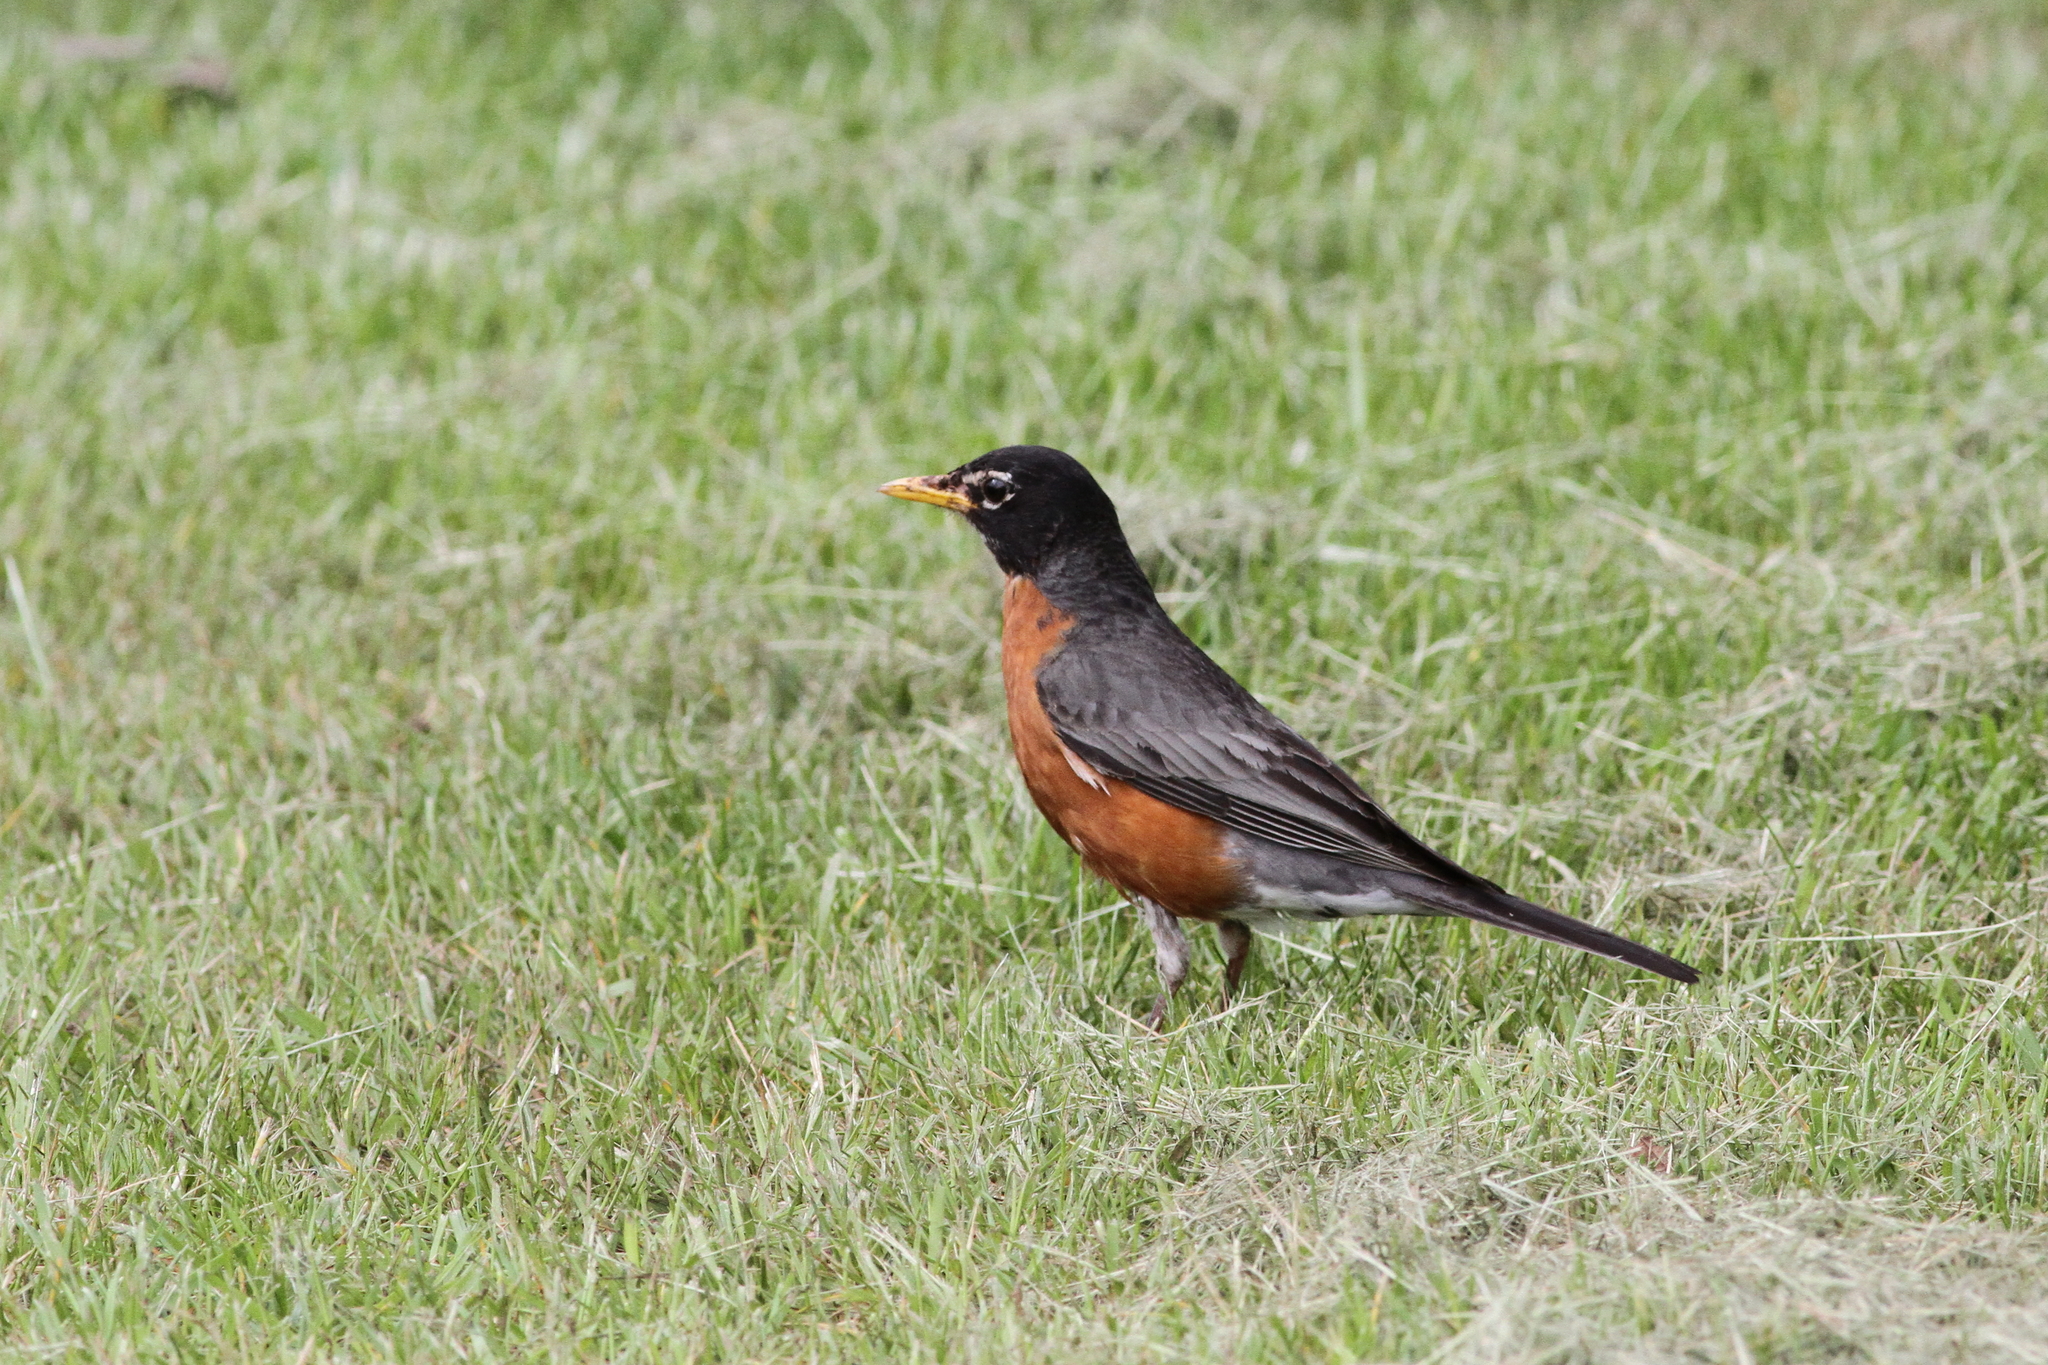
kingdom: Animalia
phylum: Chordata
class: Aves
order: Passeriformes
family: Turdidae
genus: Turdus
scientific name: Turdus migratorius
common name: American robin
